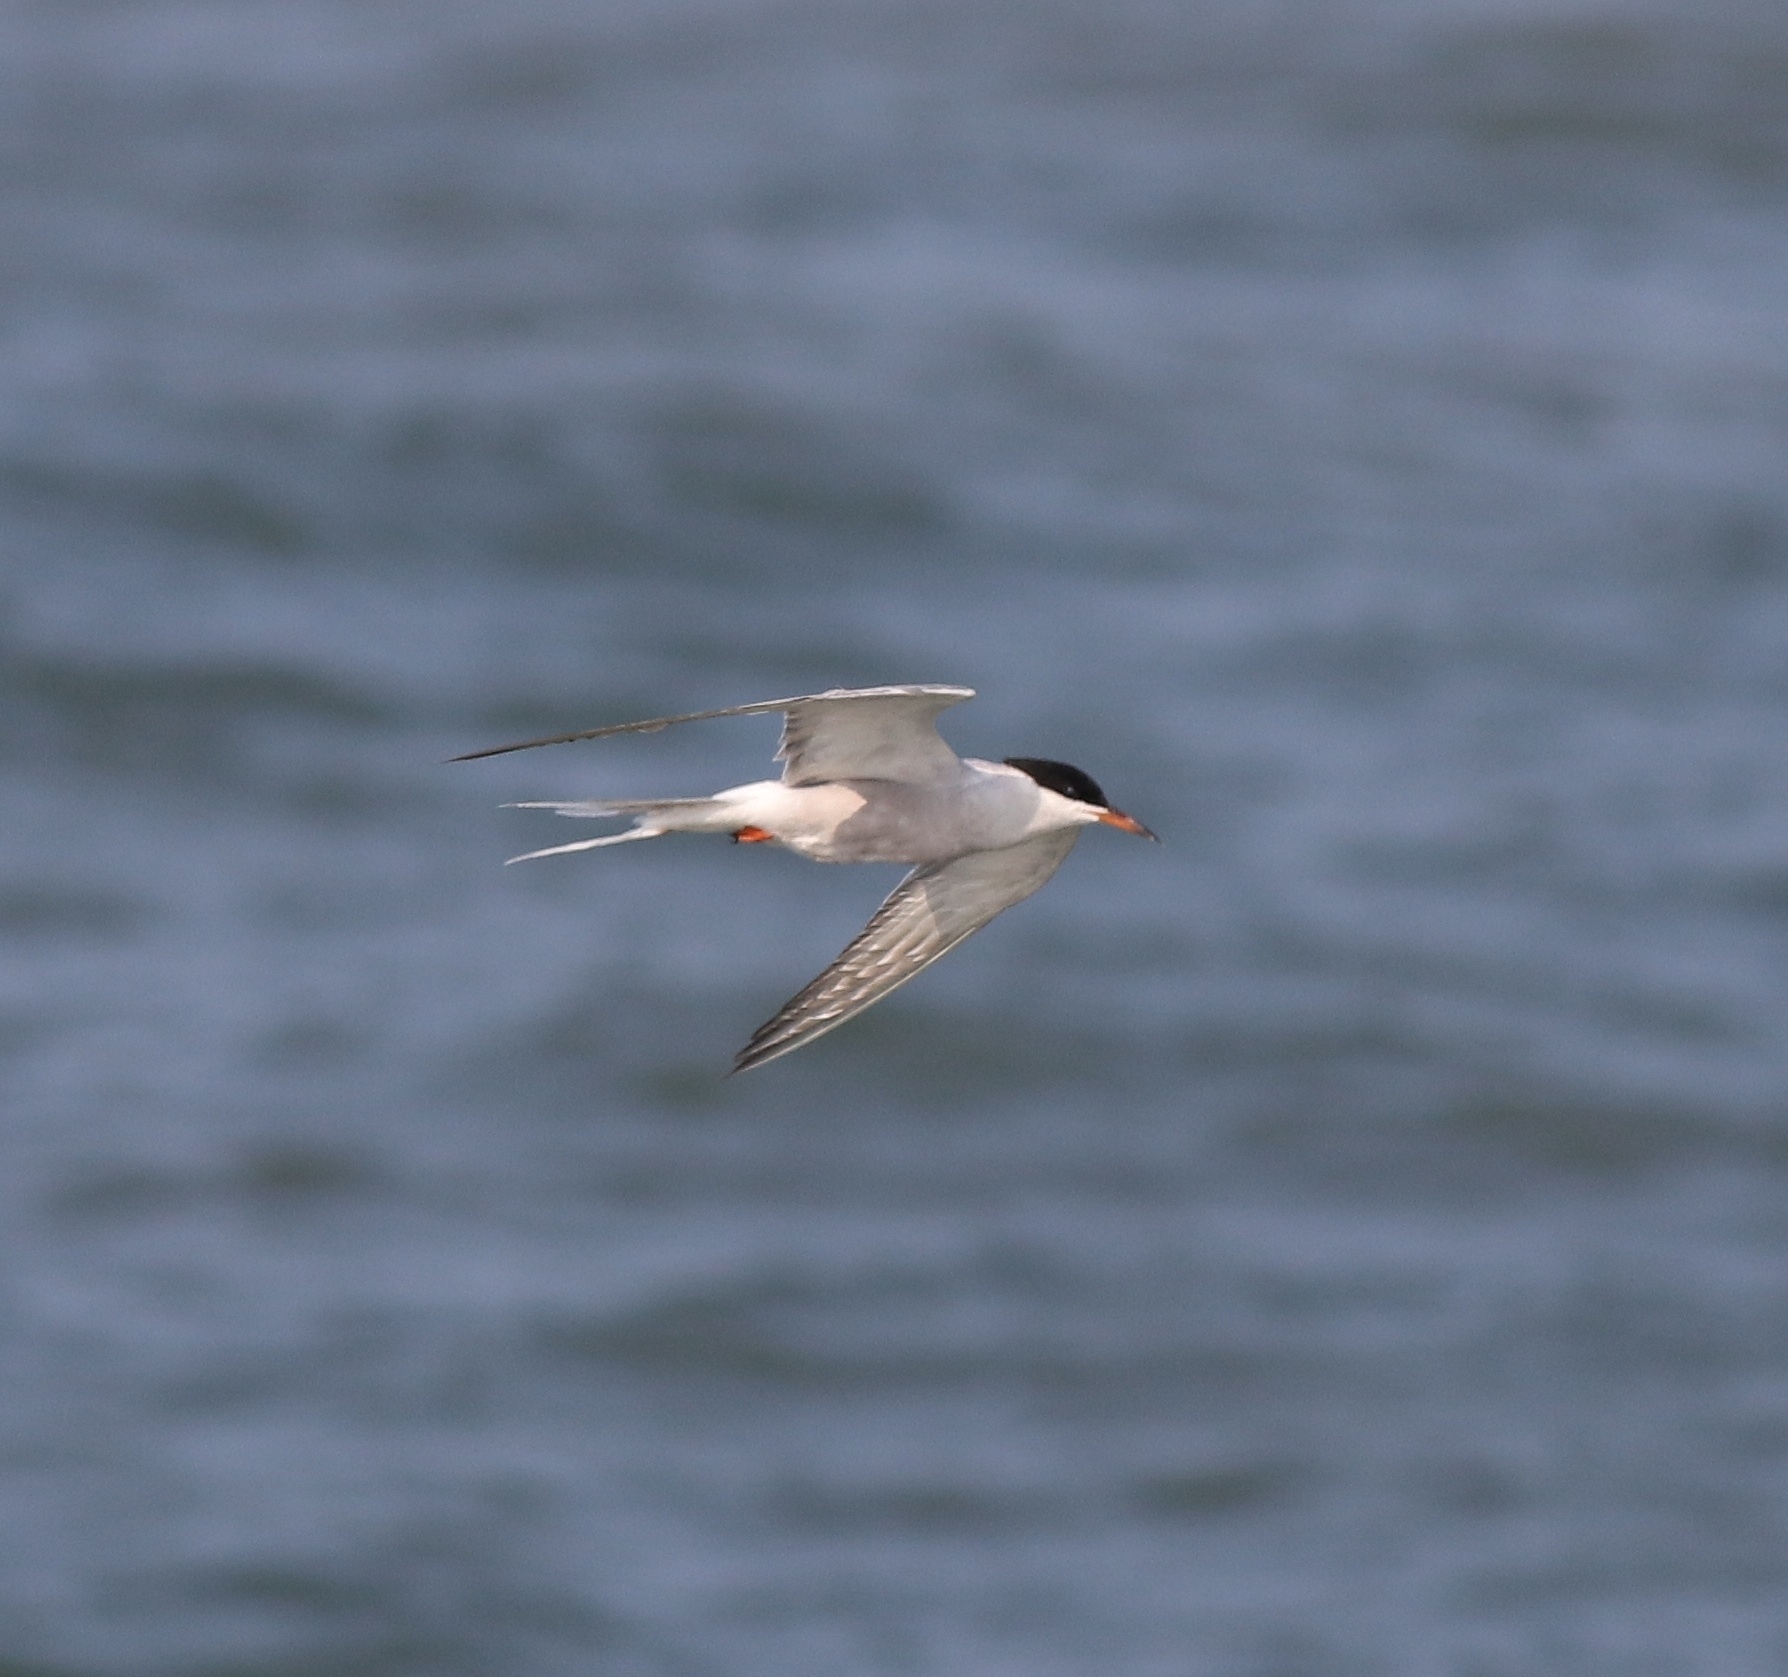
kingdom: Animalia
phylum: Chordata
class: Aves
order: Charadriiformes
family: Laridae
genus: Sterna
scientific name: Sterna hirundo
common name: Common tern
